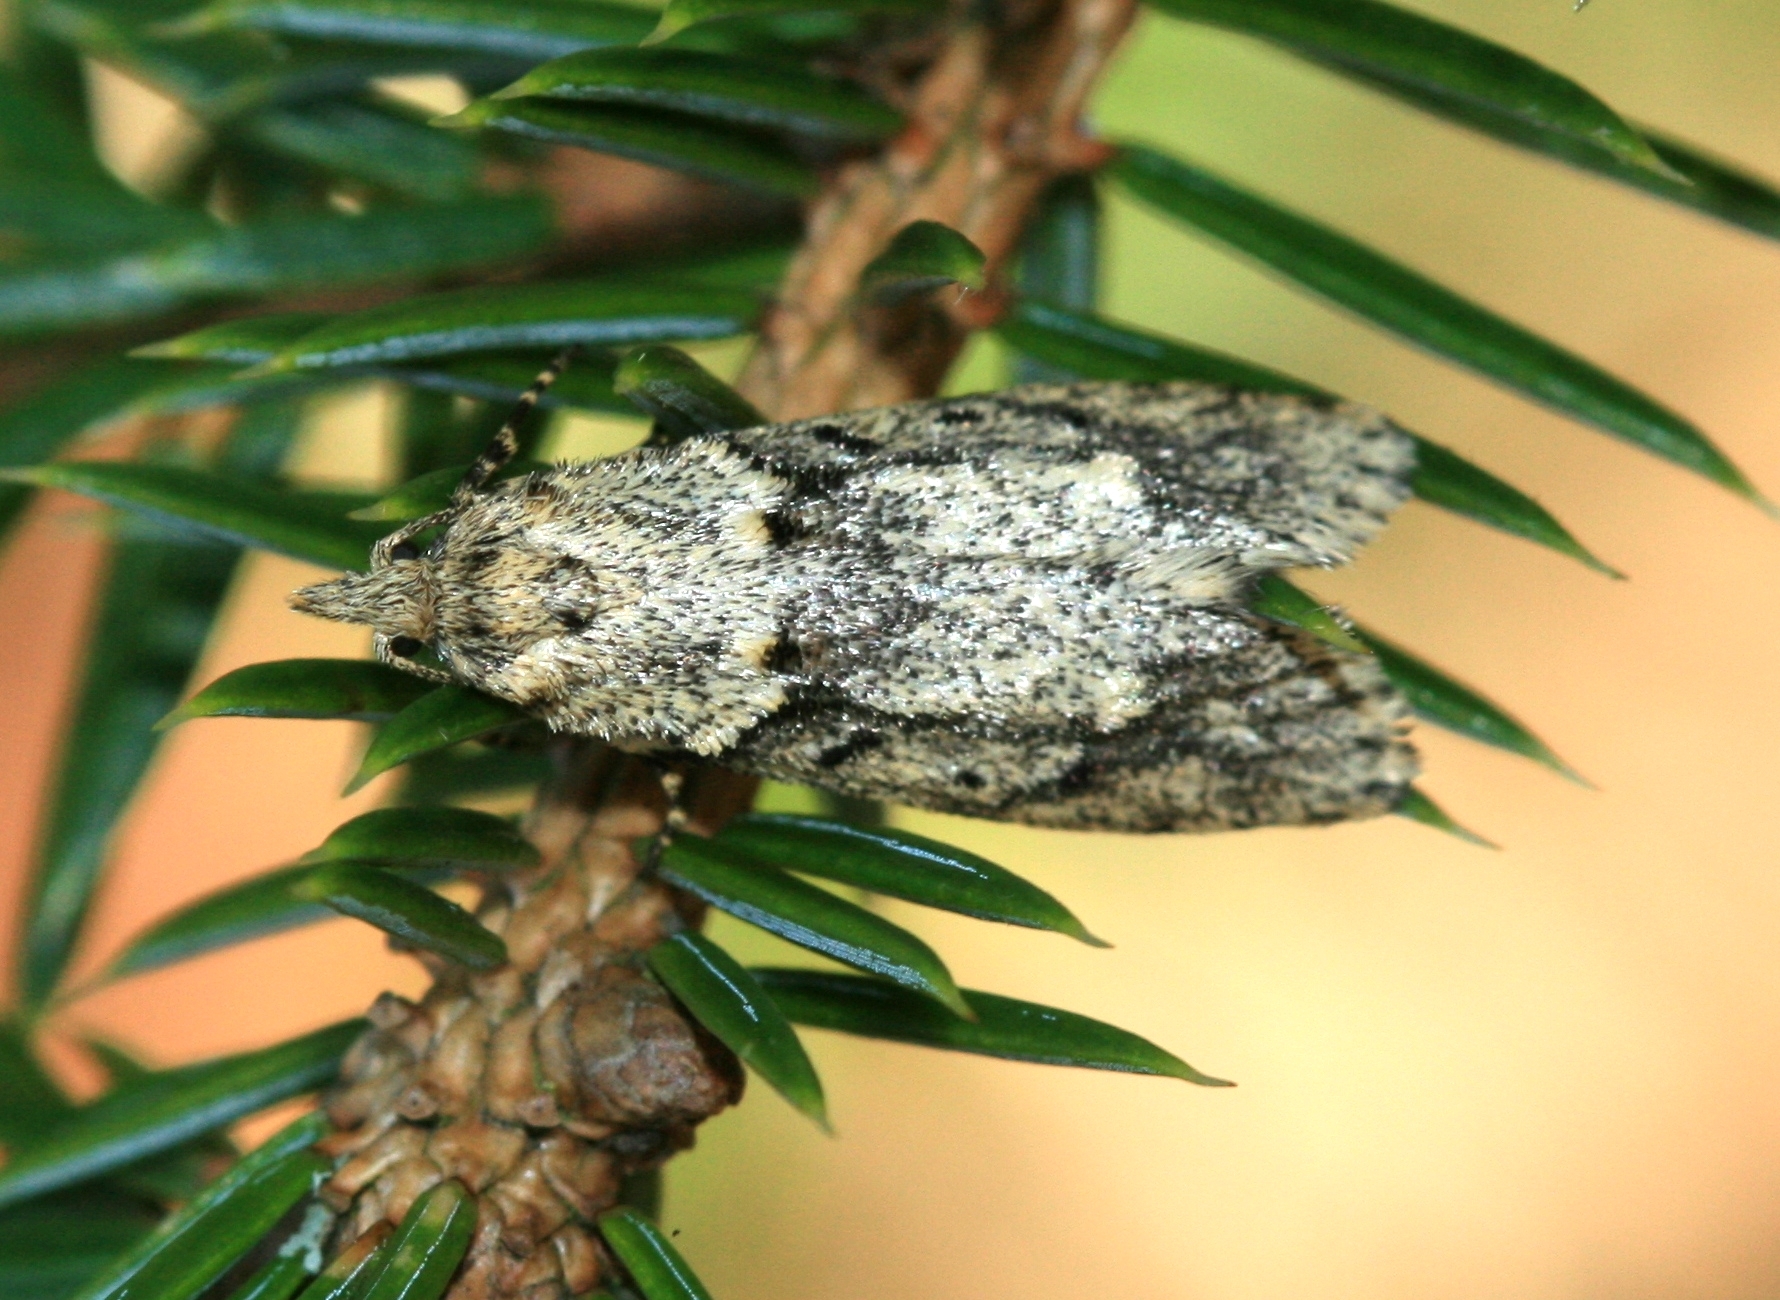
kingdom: Animalia
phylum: Arthropoda
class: Insecta
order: Lepidoptera
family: Lypusidae
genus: Diurnea
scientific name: Diurnea fagella
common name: March tubic
